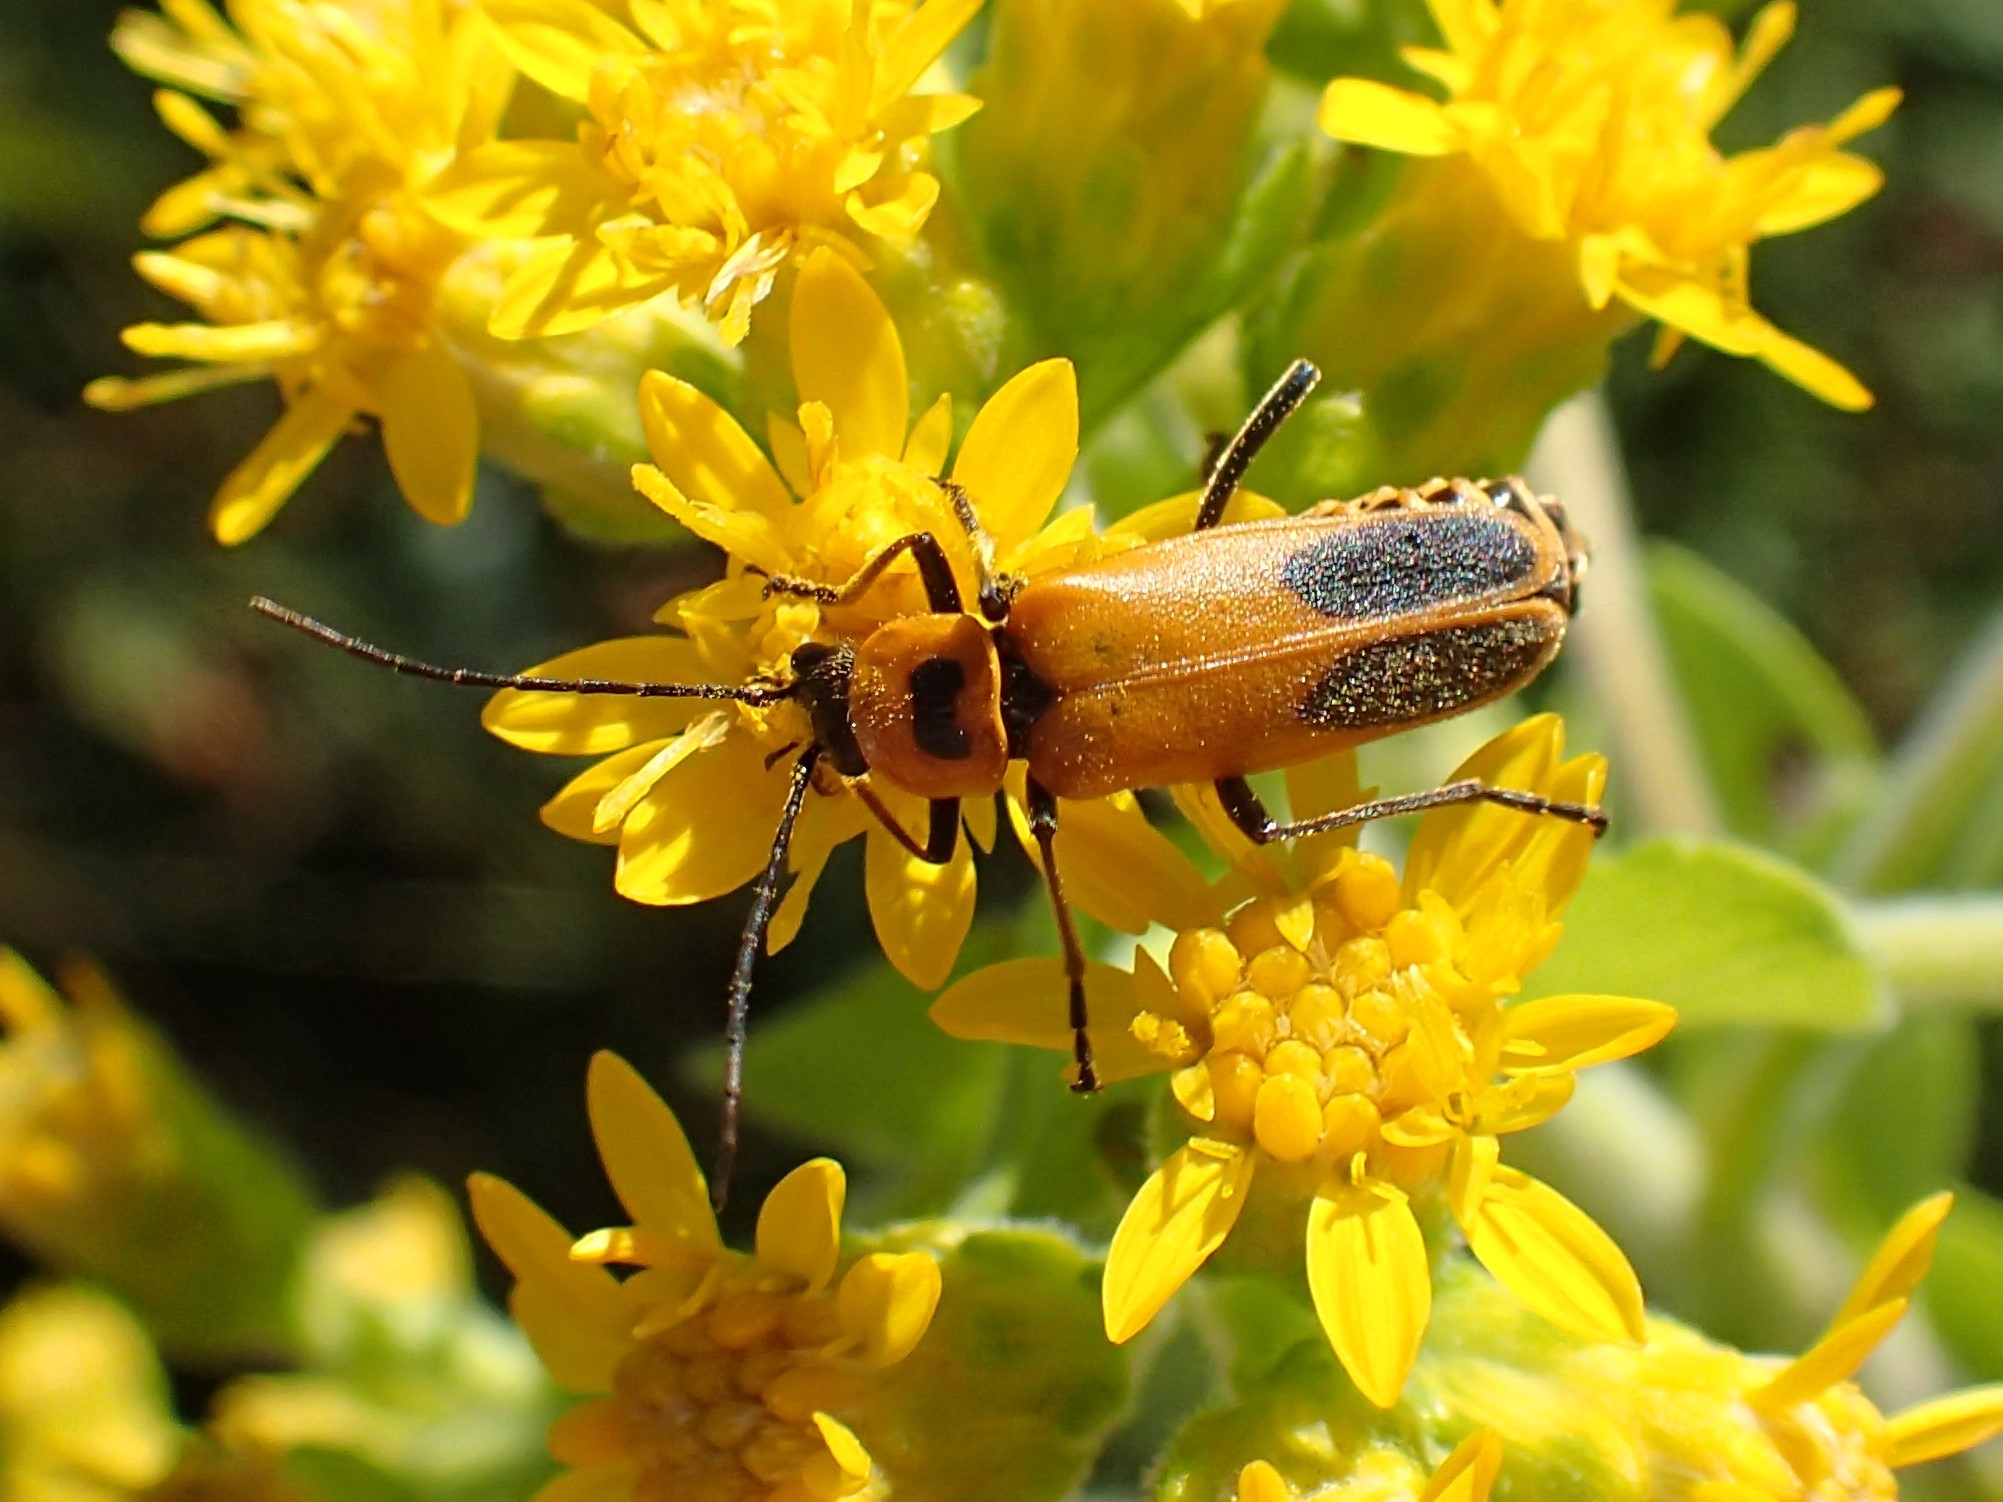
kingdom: Animalia
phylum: Arthropoda
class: Insecta
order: Coleoptera
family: Cantharidae
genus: Chauliognathus
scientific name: Chauliognathus pensylvanicus
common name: Goldenrod soldier beetle
